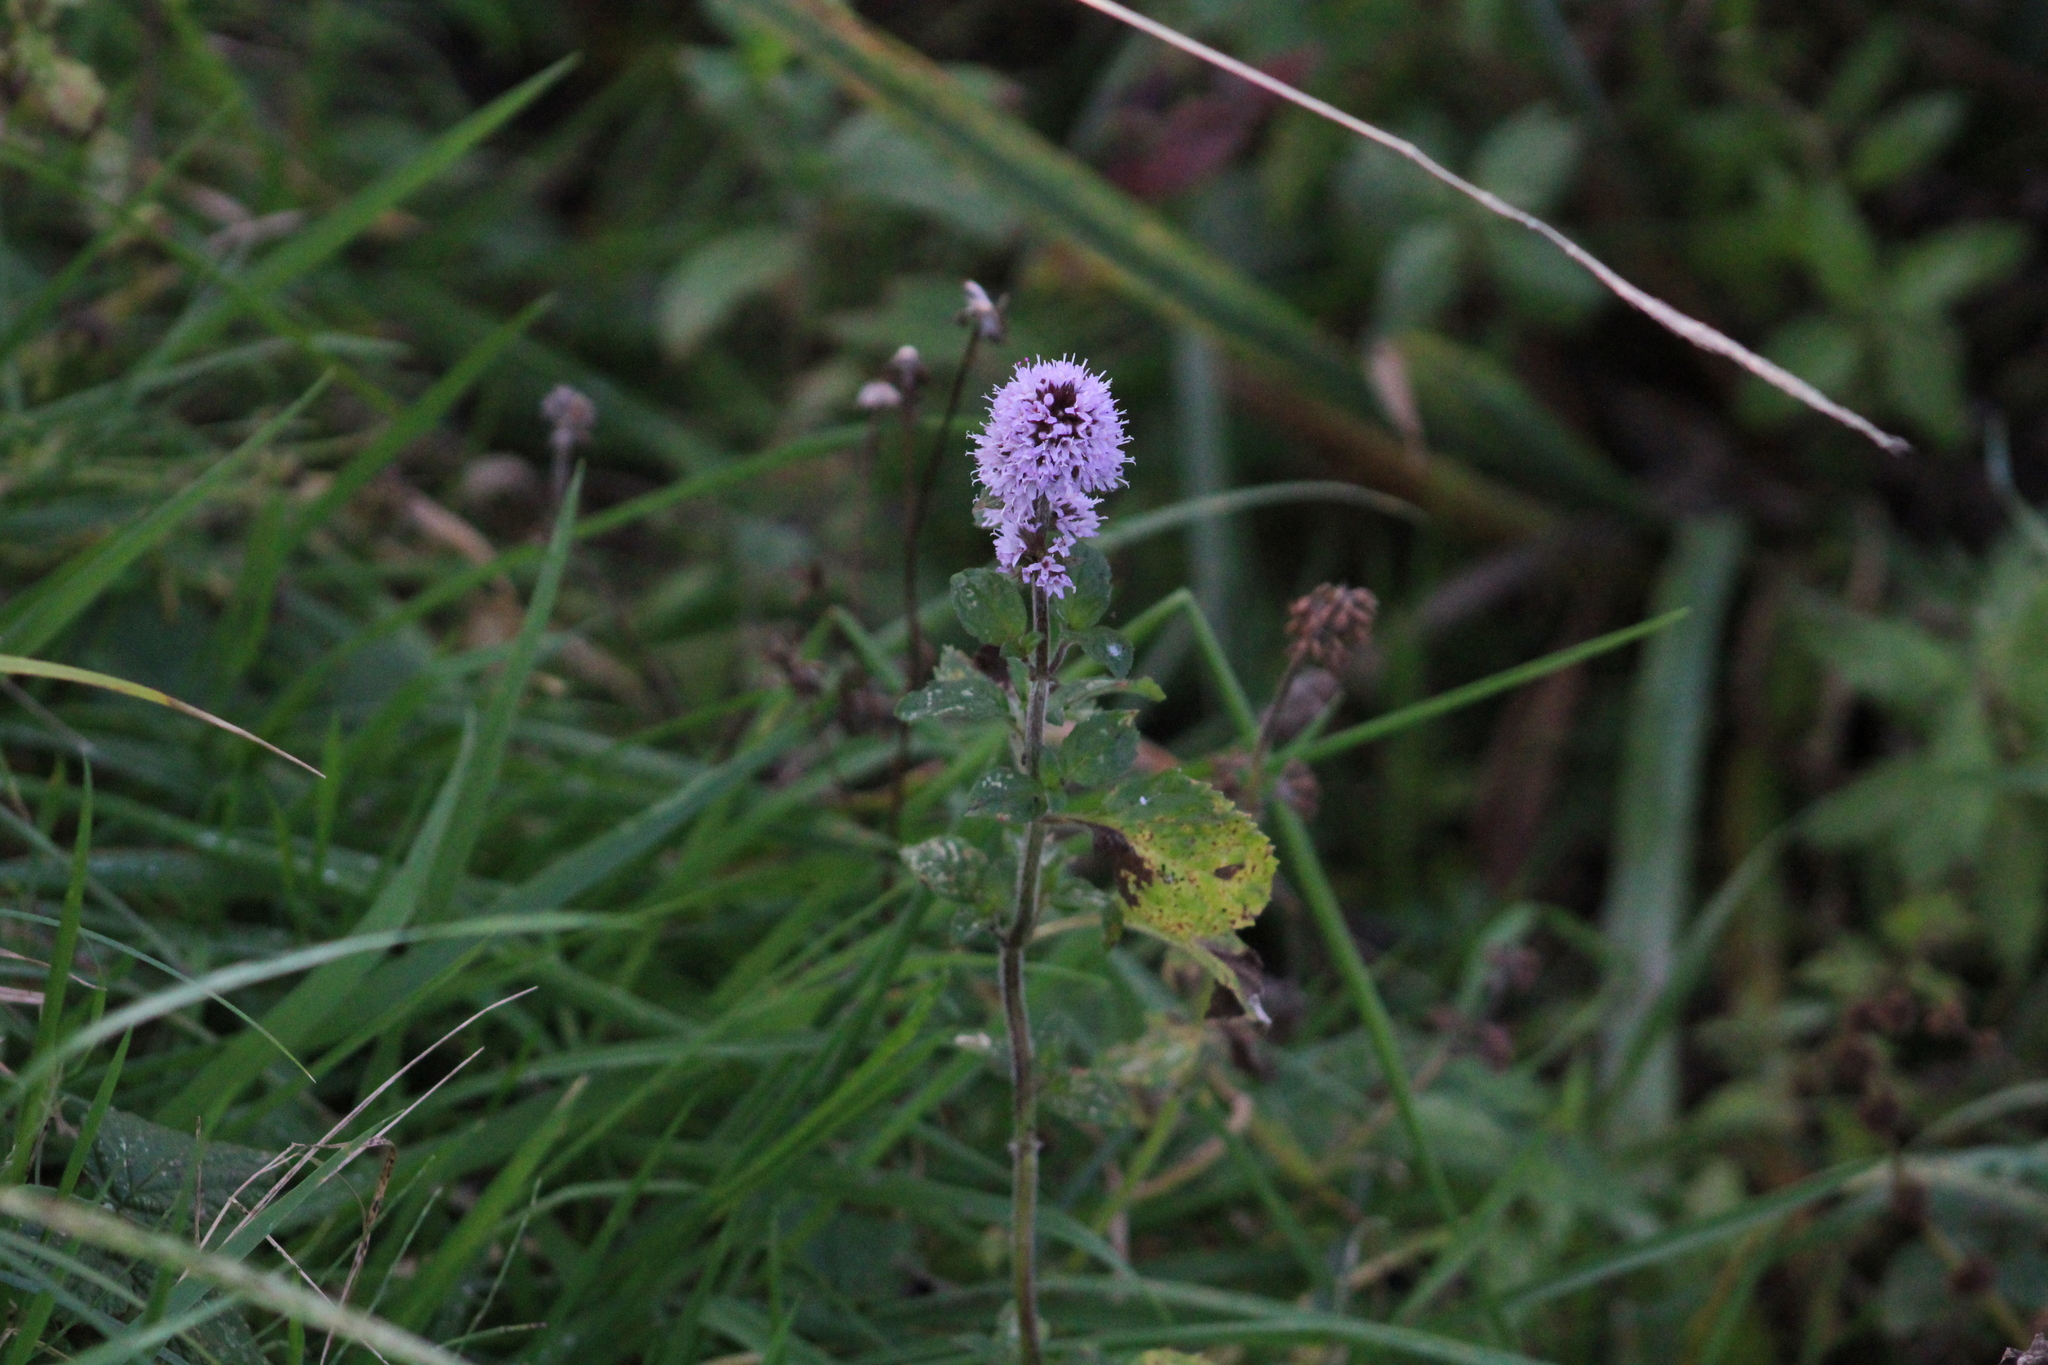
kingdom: Plantae
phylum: Tracheophyta
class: Magnoliopsida
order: Lamiales
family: Lamiaceae
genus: Mentha
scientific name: Mentha aquatica
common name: Water mint
